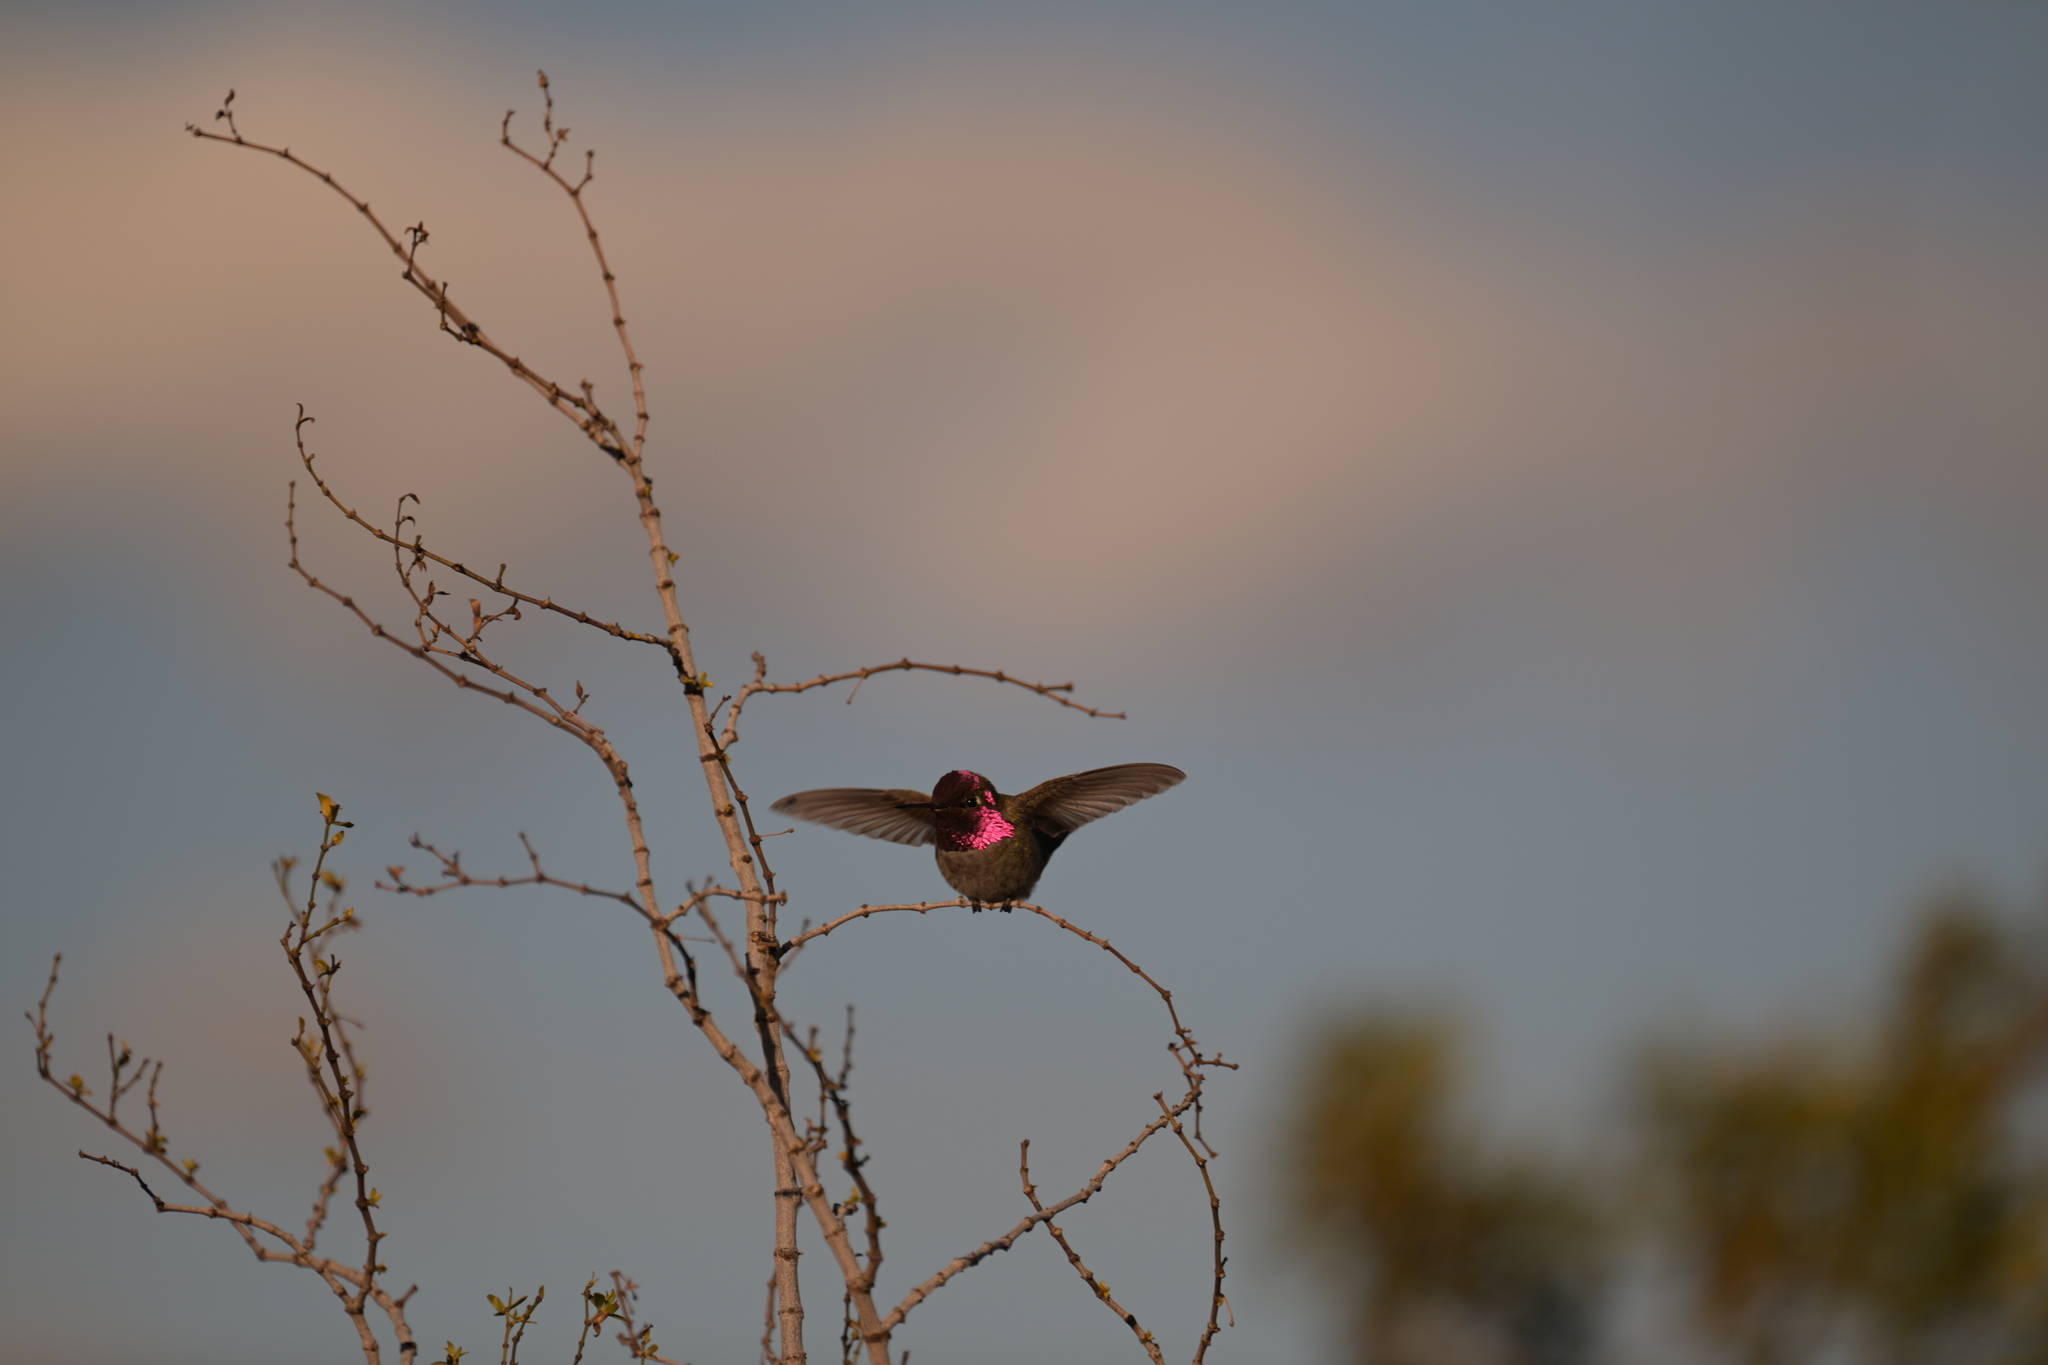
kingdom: Animalia
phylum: Chordata
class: Aves
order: Apodiformes
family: Trochilidae
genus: Calypte
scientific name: Calypte anna
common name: Anna's hummingbird
